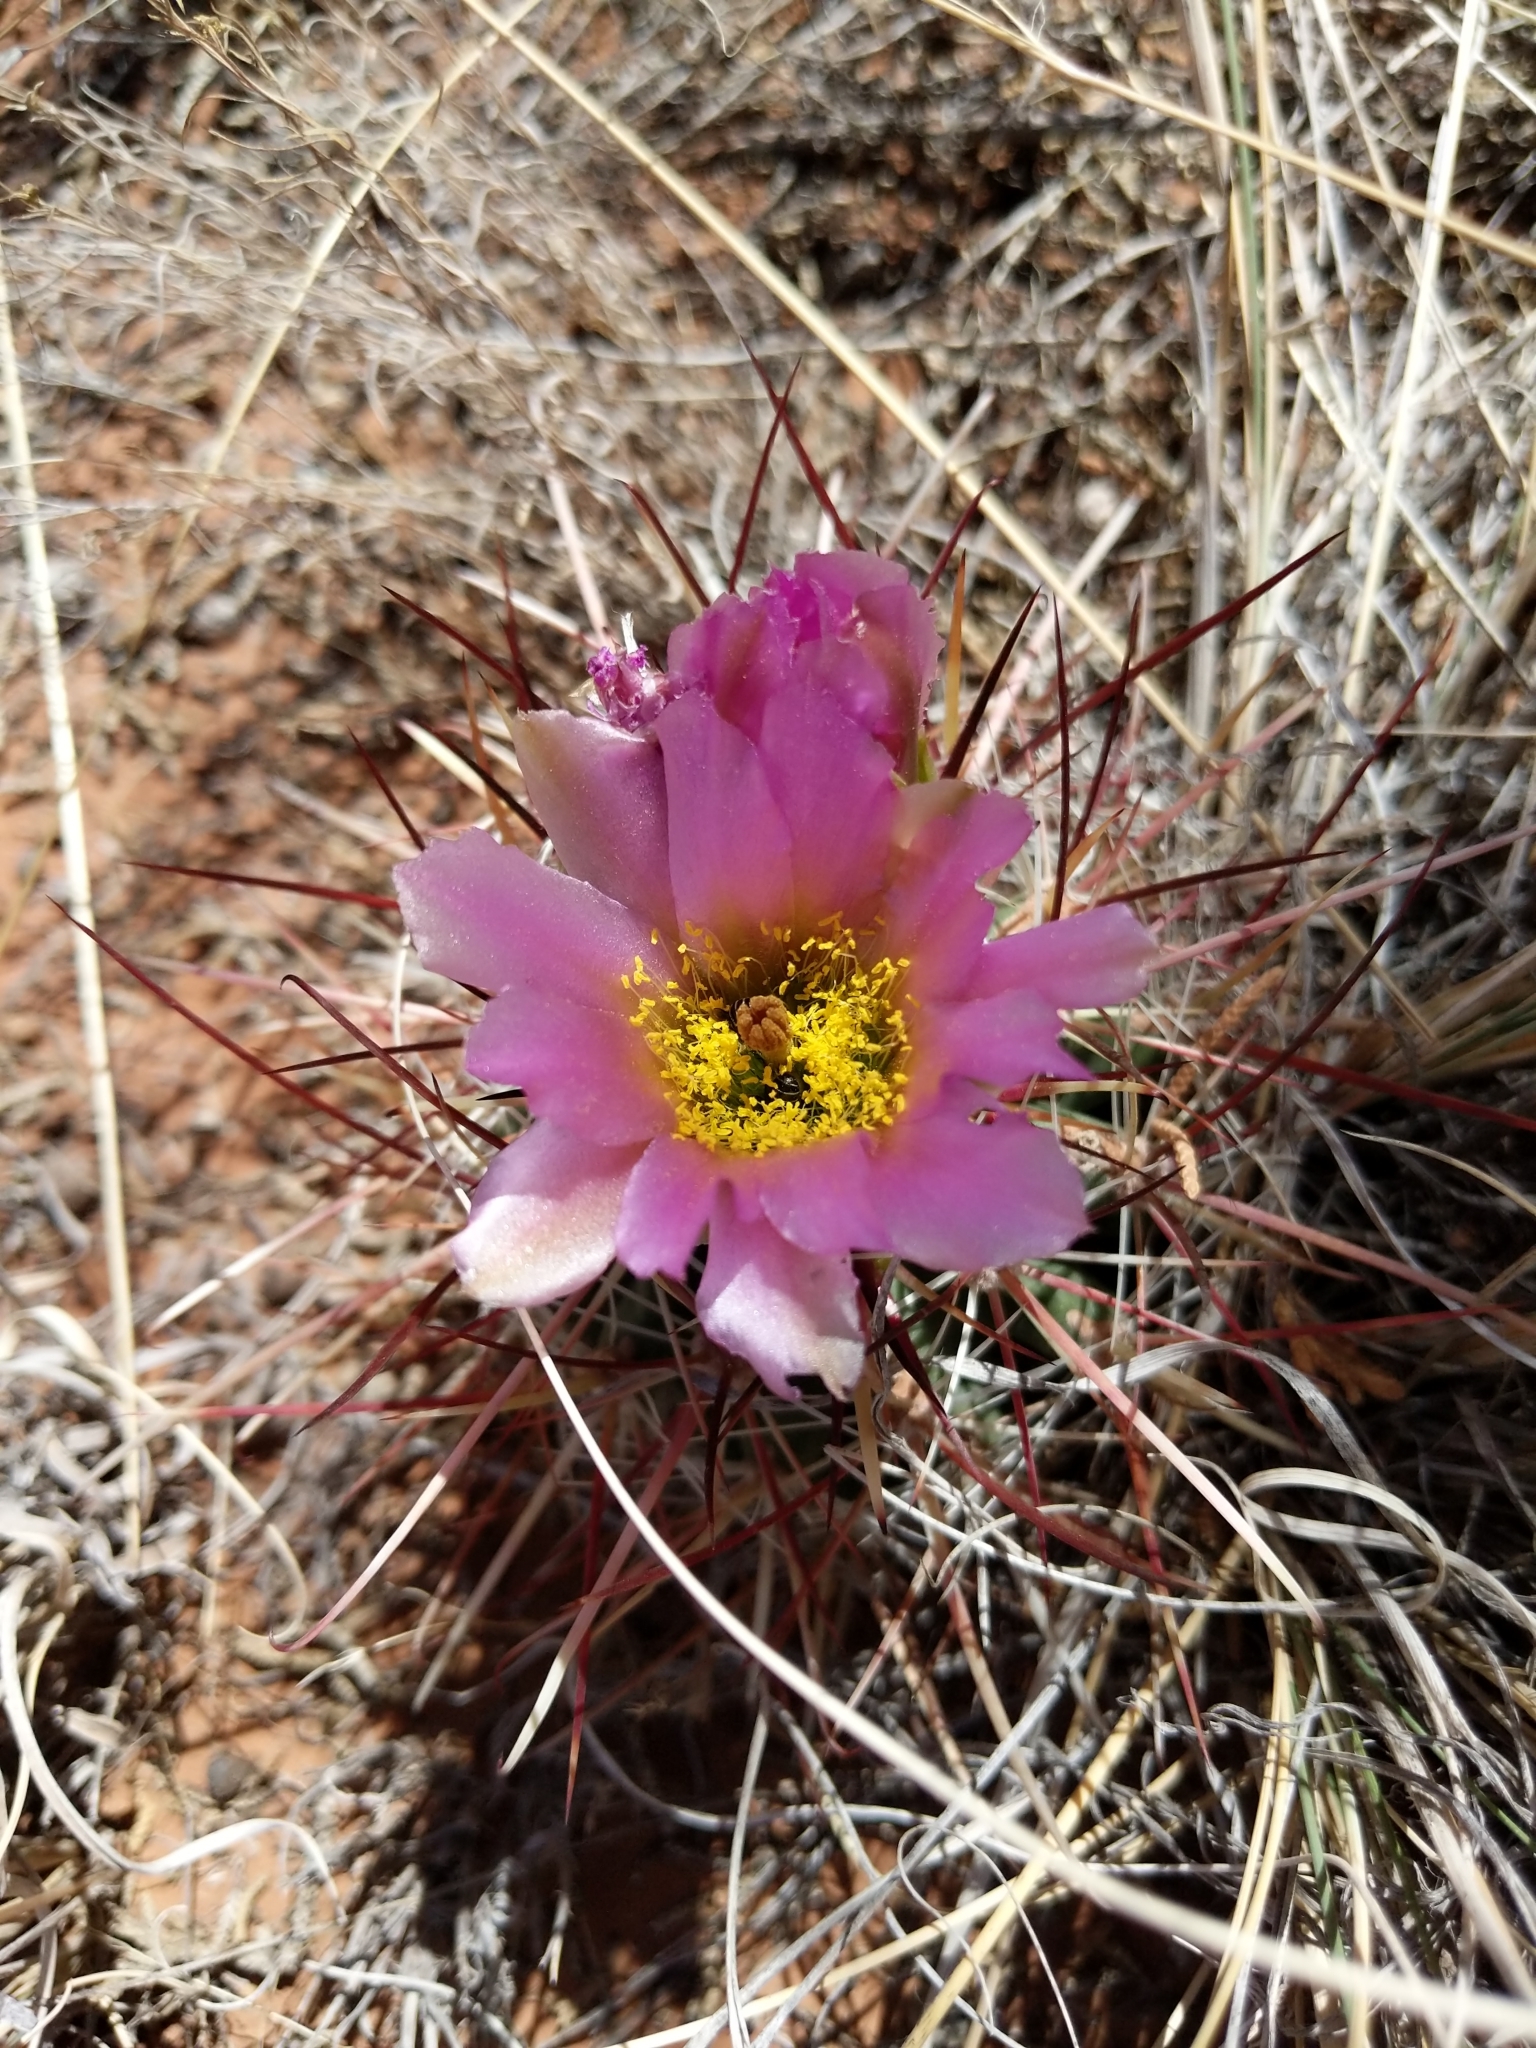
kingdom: Plantae
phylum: Tracheophyta
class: Magnoliopsida
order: Caryophyllales
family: Cactaceae
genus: Sclerocactus
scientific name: Sclerocactus parviflorus
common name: Small-flower fishhook cactus
